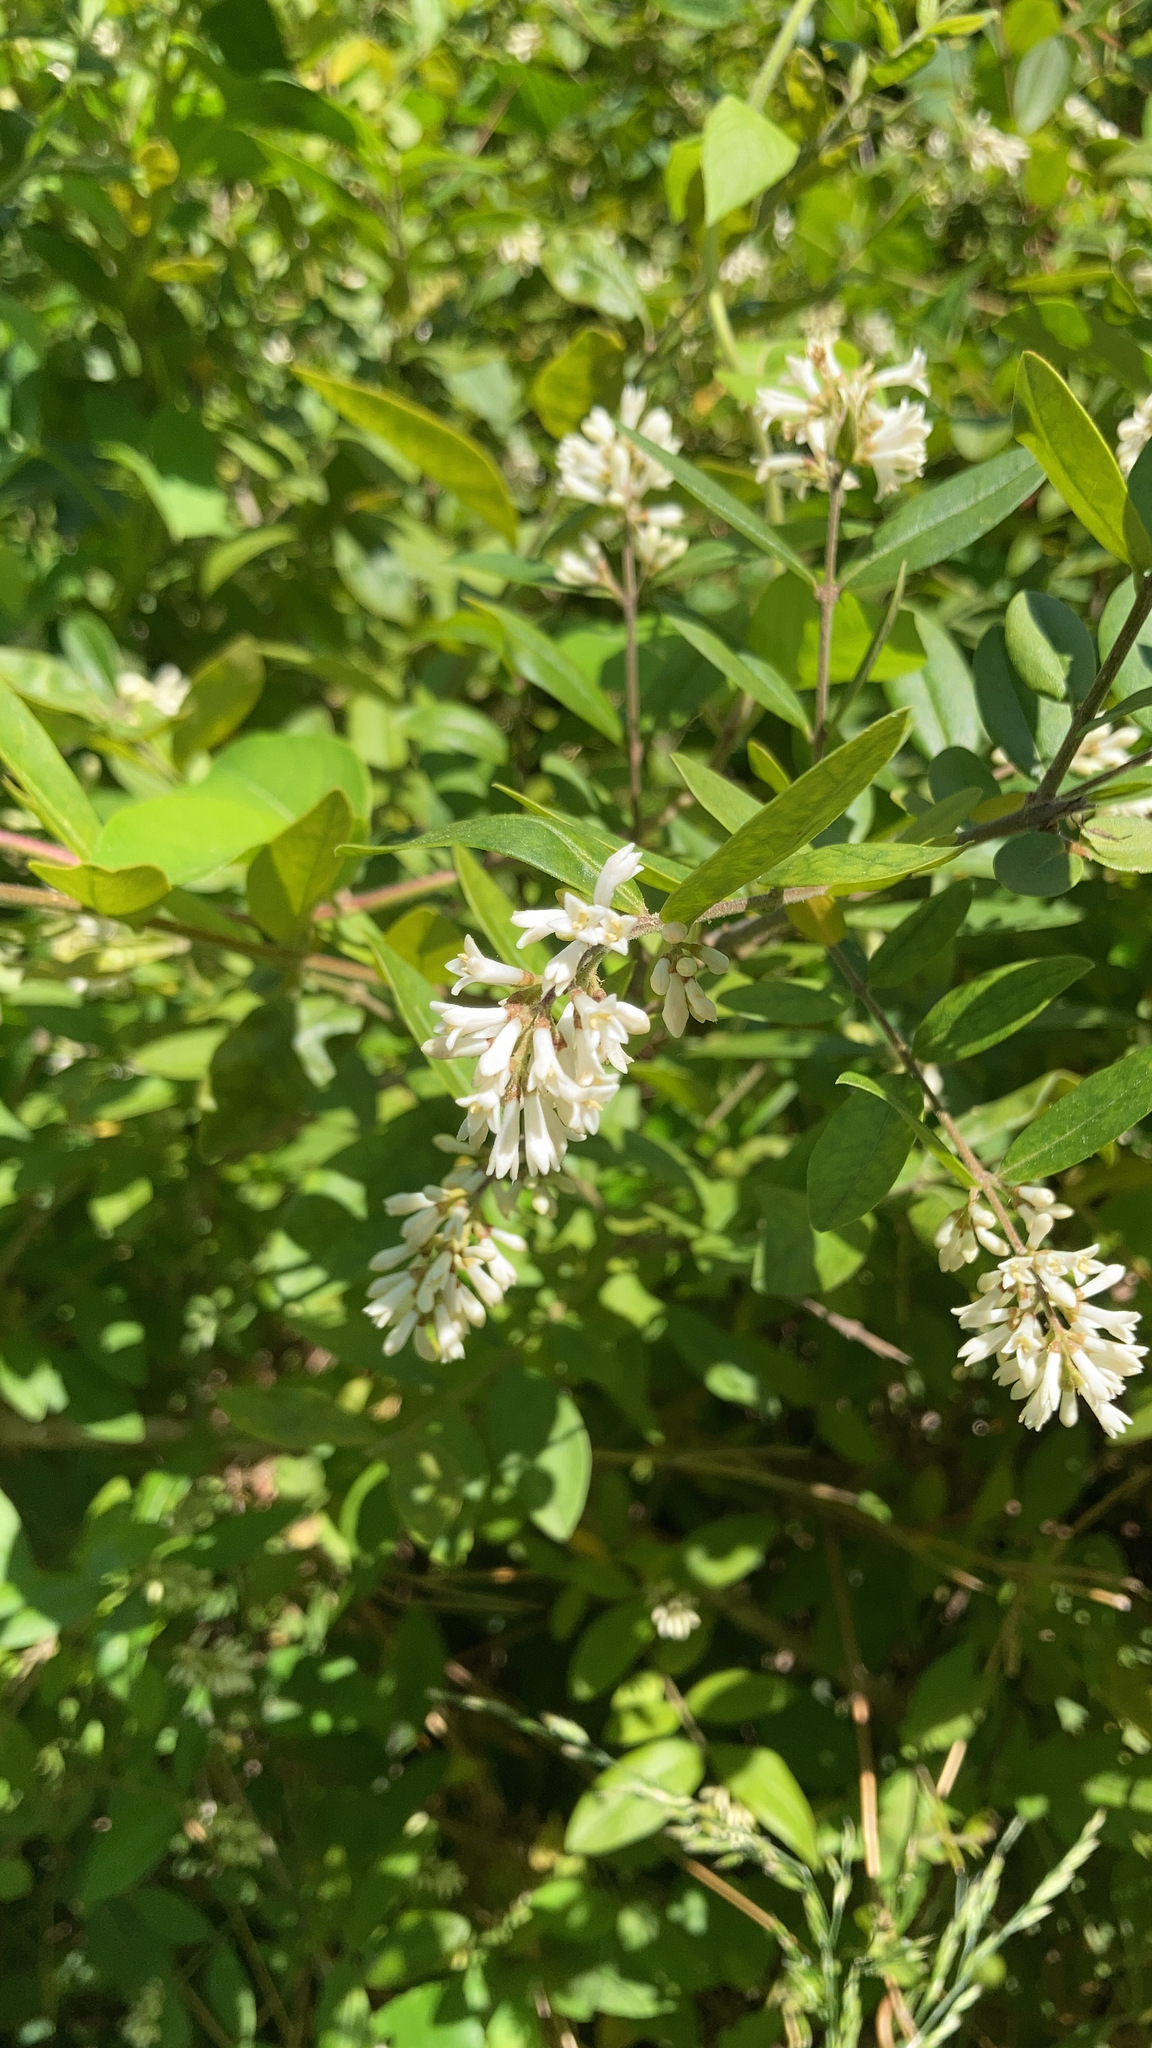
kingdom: Plantae
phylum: Tracheophyta
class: Magnoliopsida
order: Lamiales
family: Oleaceae
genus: Ligustrum
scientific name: Ligustrum obtusifolium
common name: Border privet
